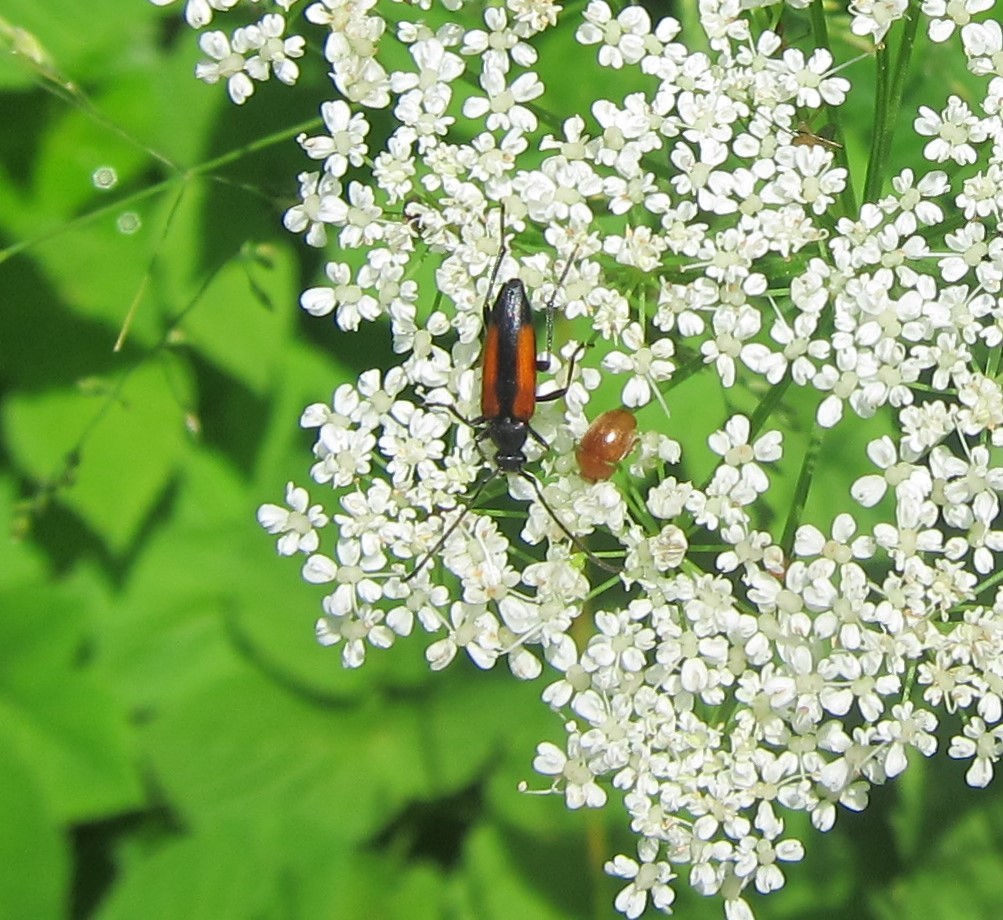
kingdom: Animalia
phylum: Arthropoda
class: Insecta
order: Coleoptera
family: Cerambycidae
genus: Stenurella
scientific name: Stenurella melanura
